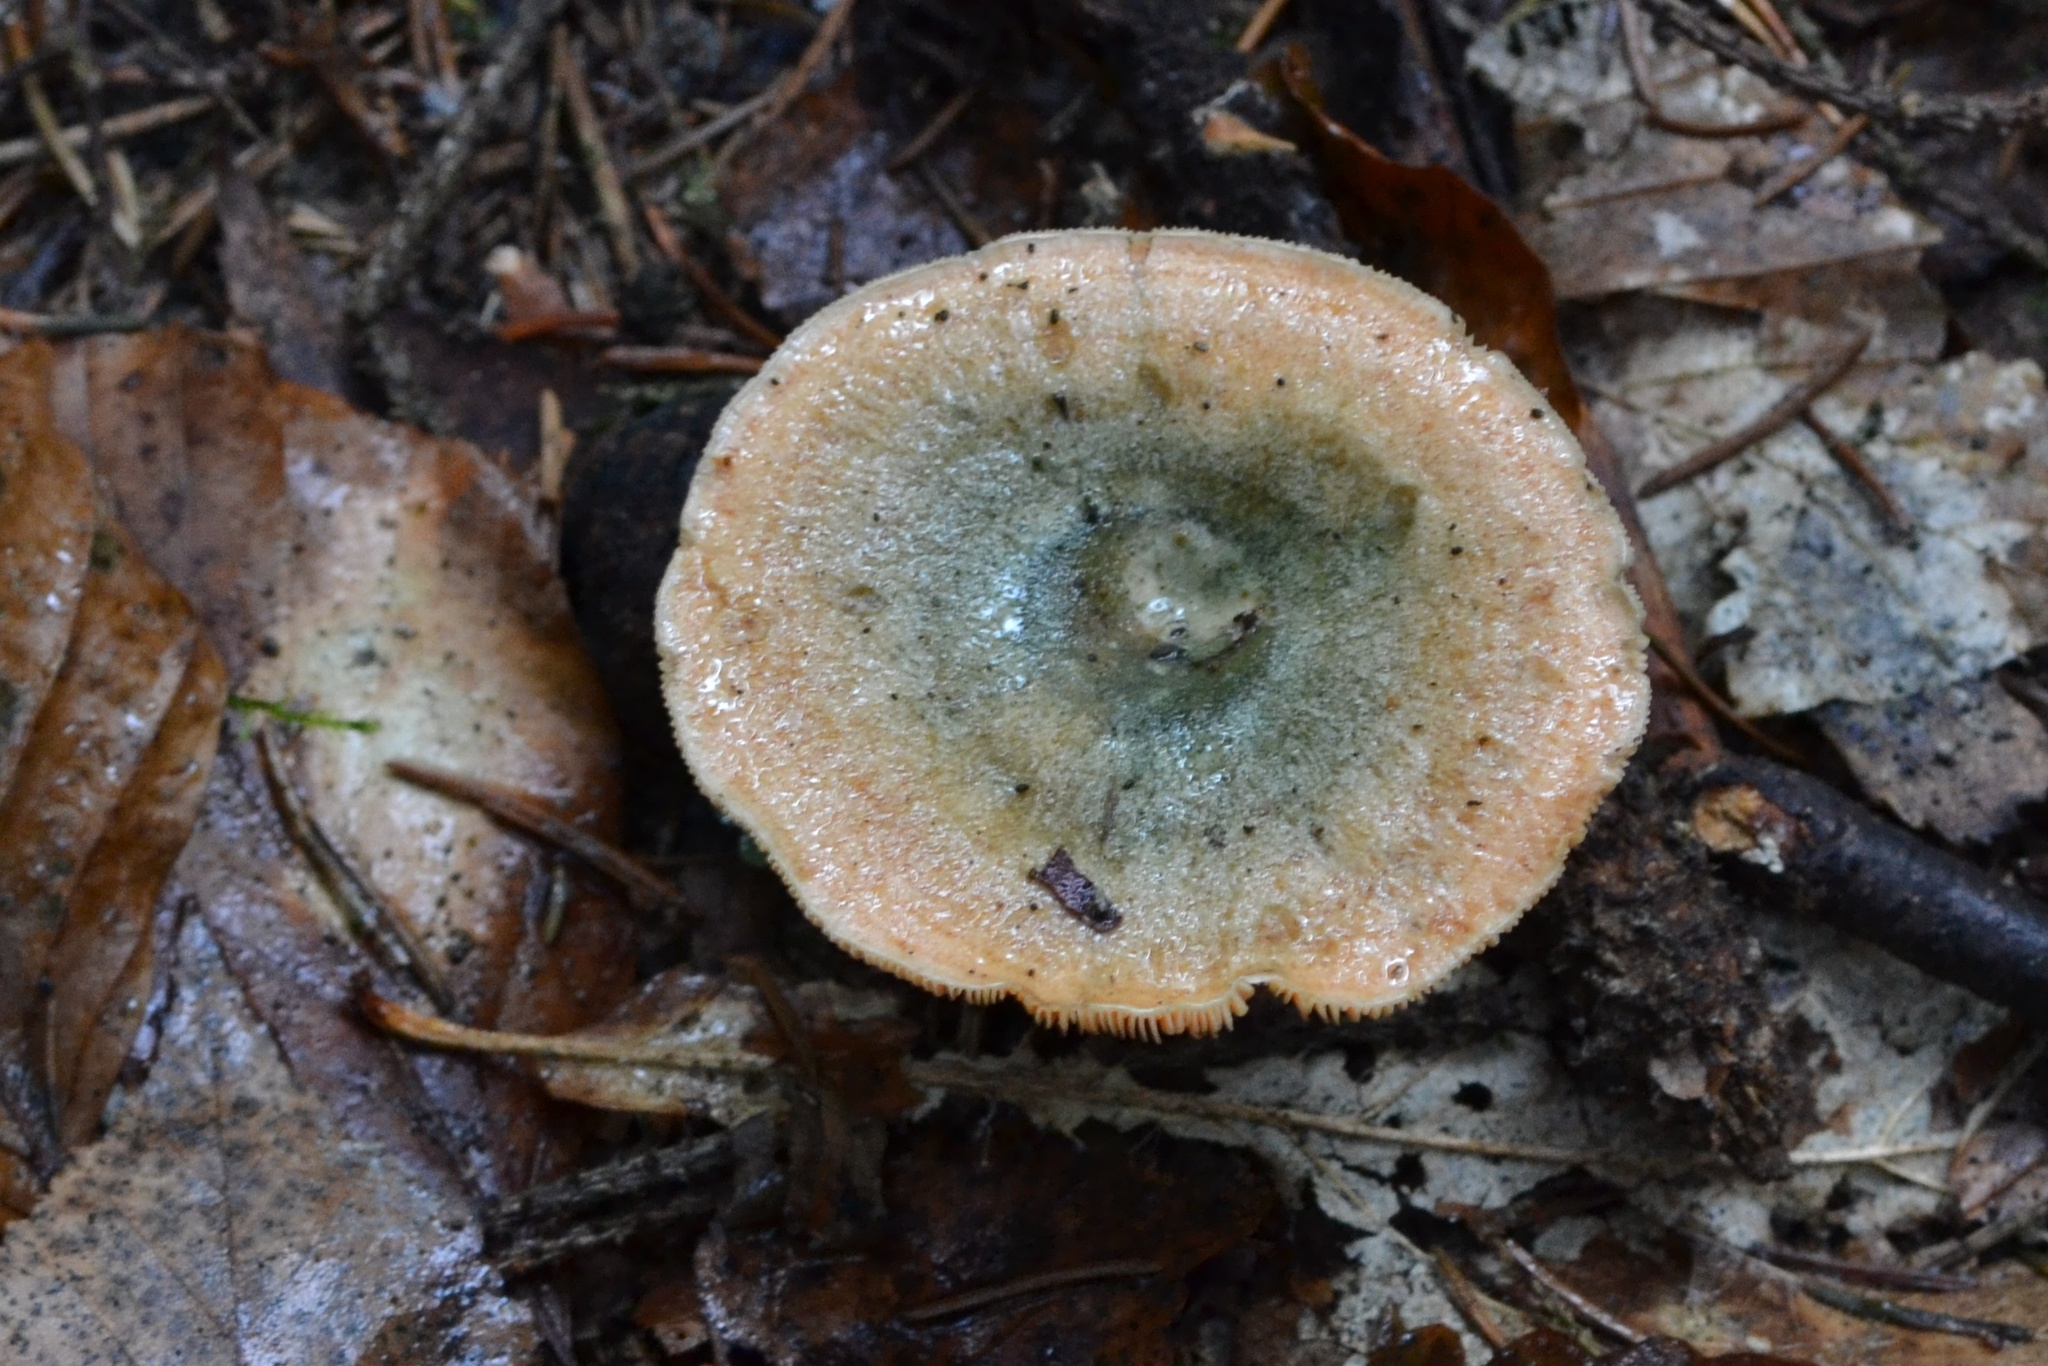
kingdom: Fungi
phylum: Basidiomycota
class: Agaricomycetes
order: Russulales
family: Russulaceae
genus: Lactarius
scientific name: Lactarius deterrimus
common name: False saffron milkcap
